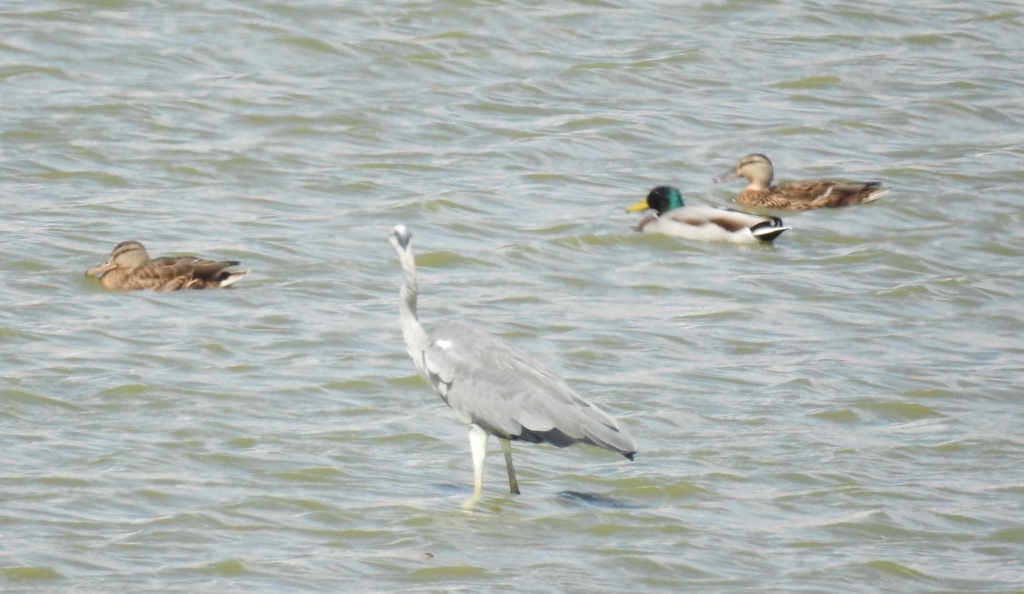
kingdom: Animalia
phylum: Chordata
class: Aves
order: Pelecaniformes
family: Ardeidae
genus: Ardea
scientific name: Ardea cinerea
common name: Grey heron
